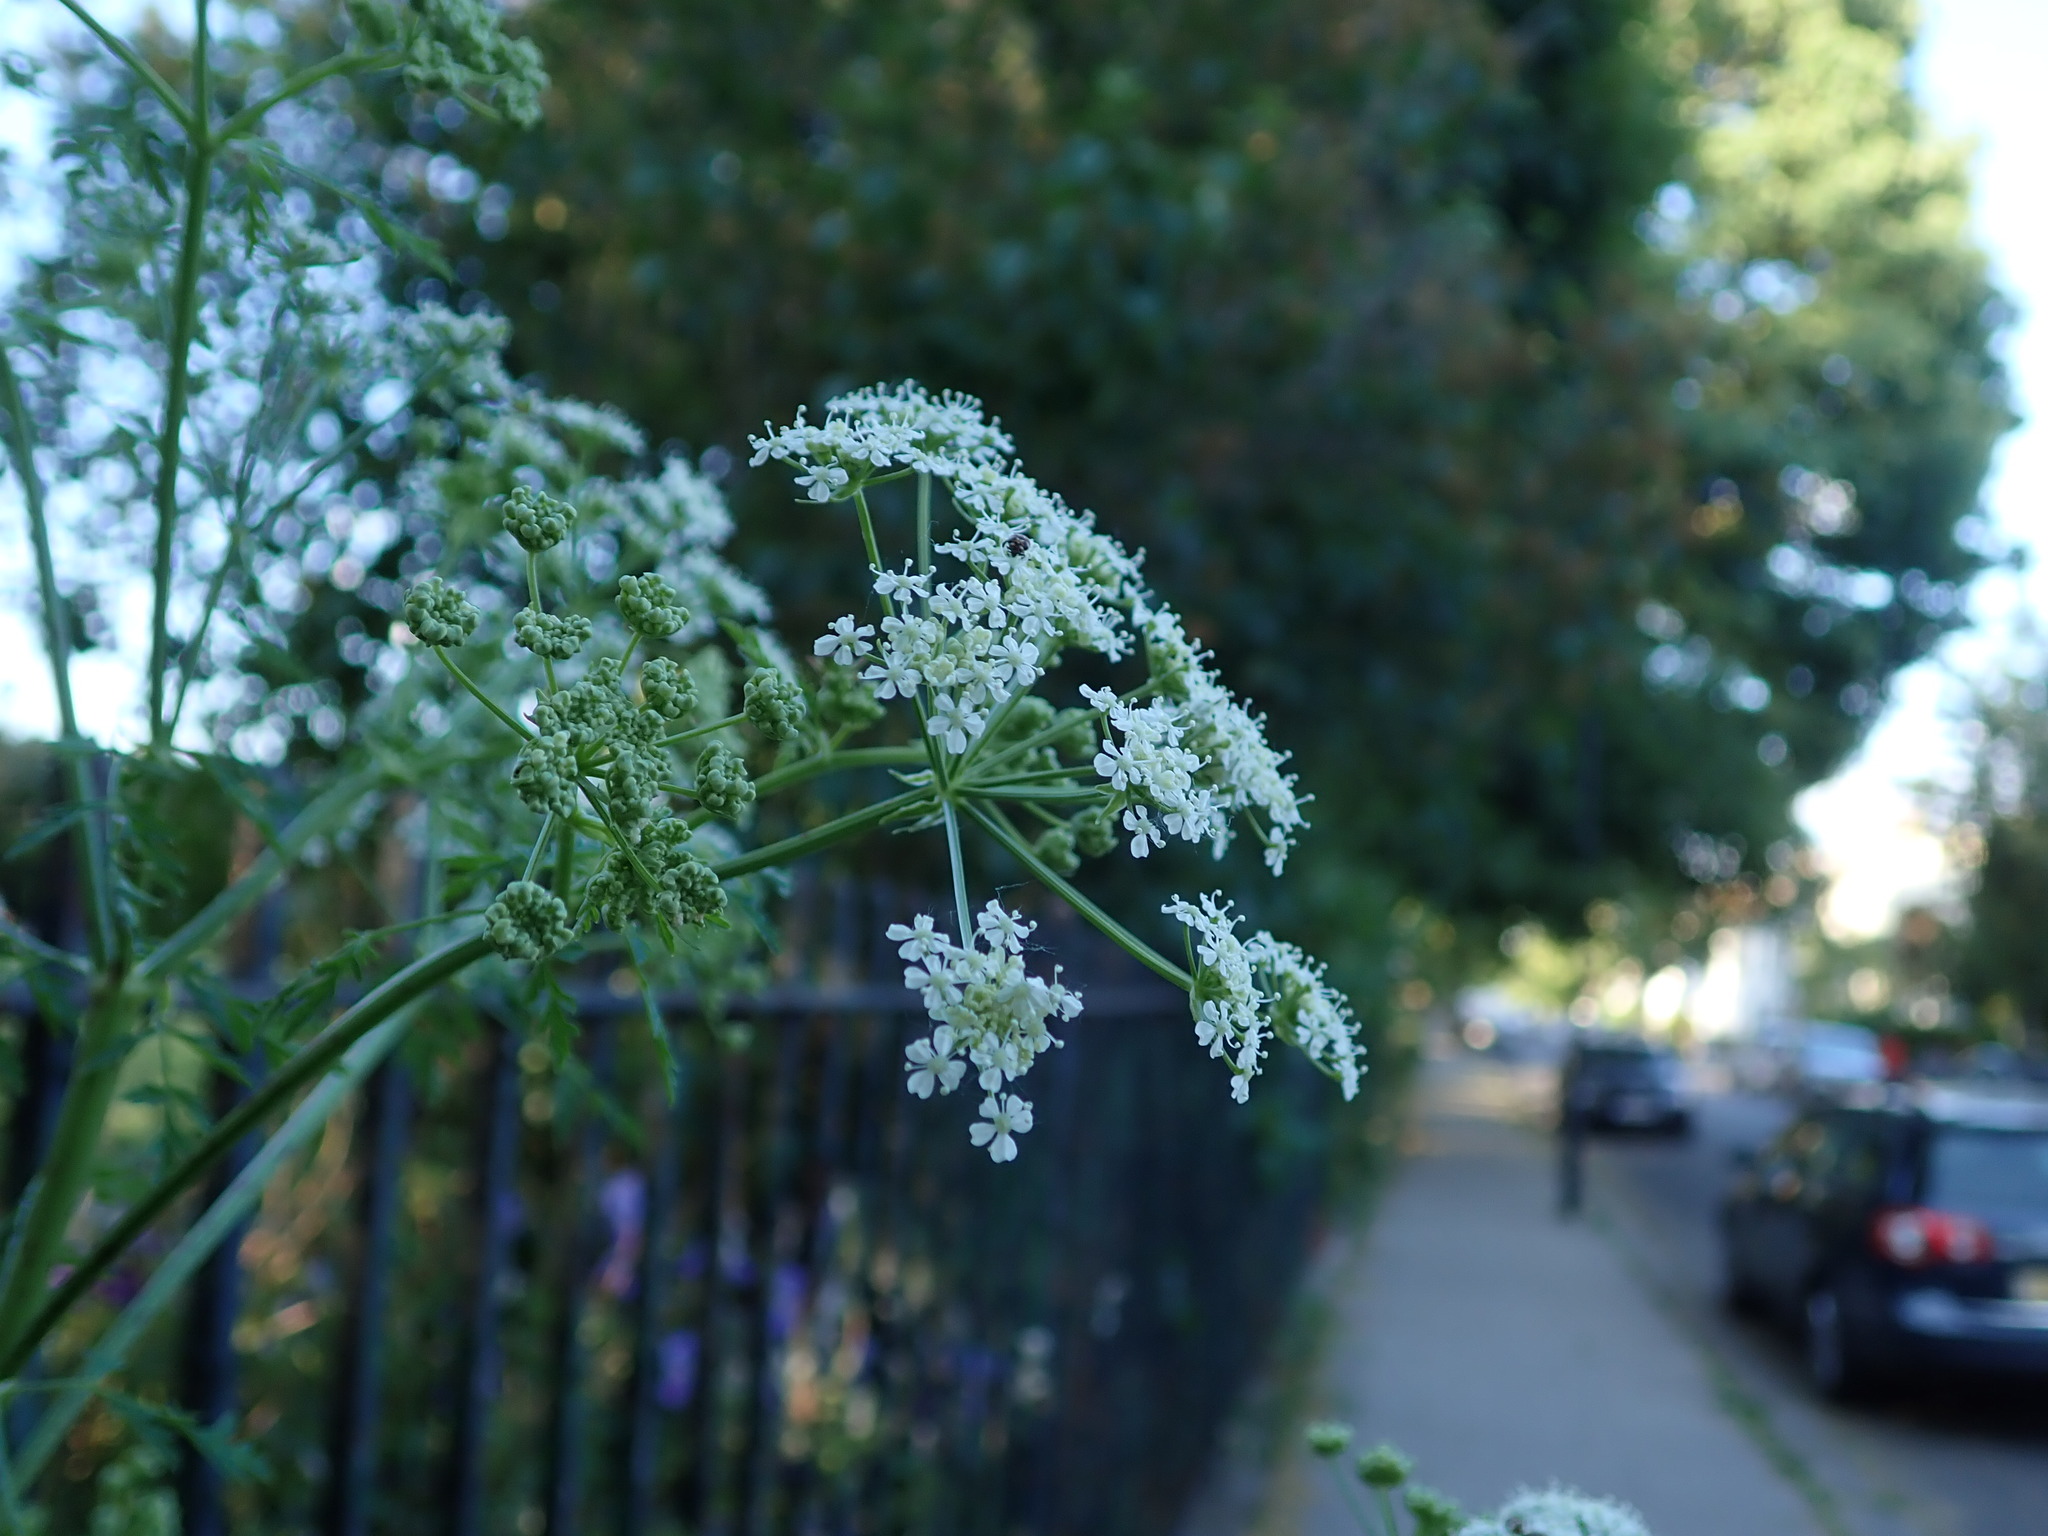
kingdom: Plantae
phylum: Tracheophyta
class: Magnoliopsida
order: Apiales
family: Apiaceae
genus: Conium
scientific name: Conium maculatum
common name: Hemlock
